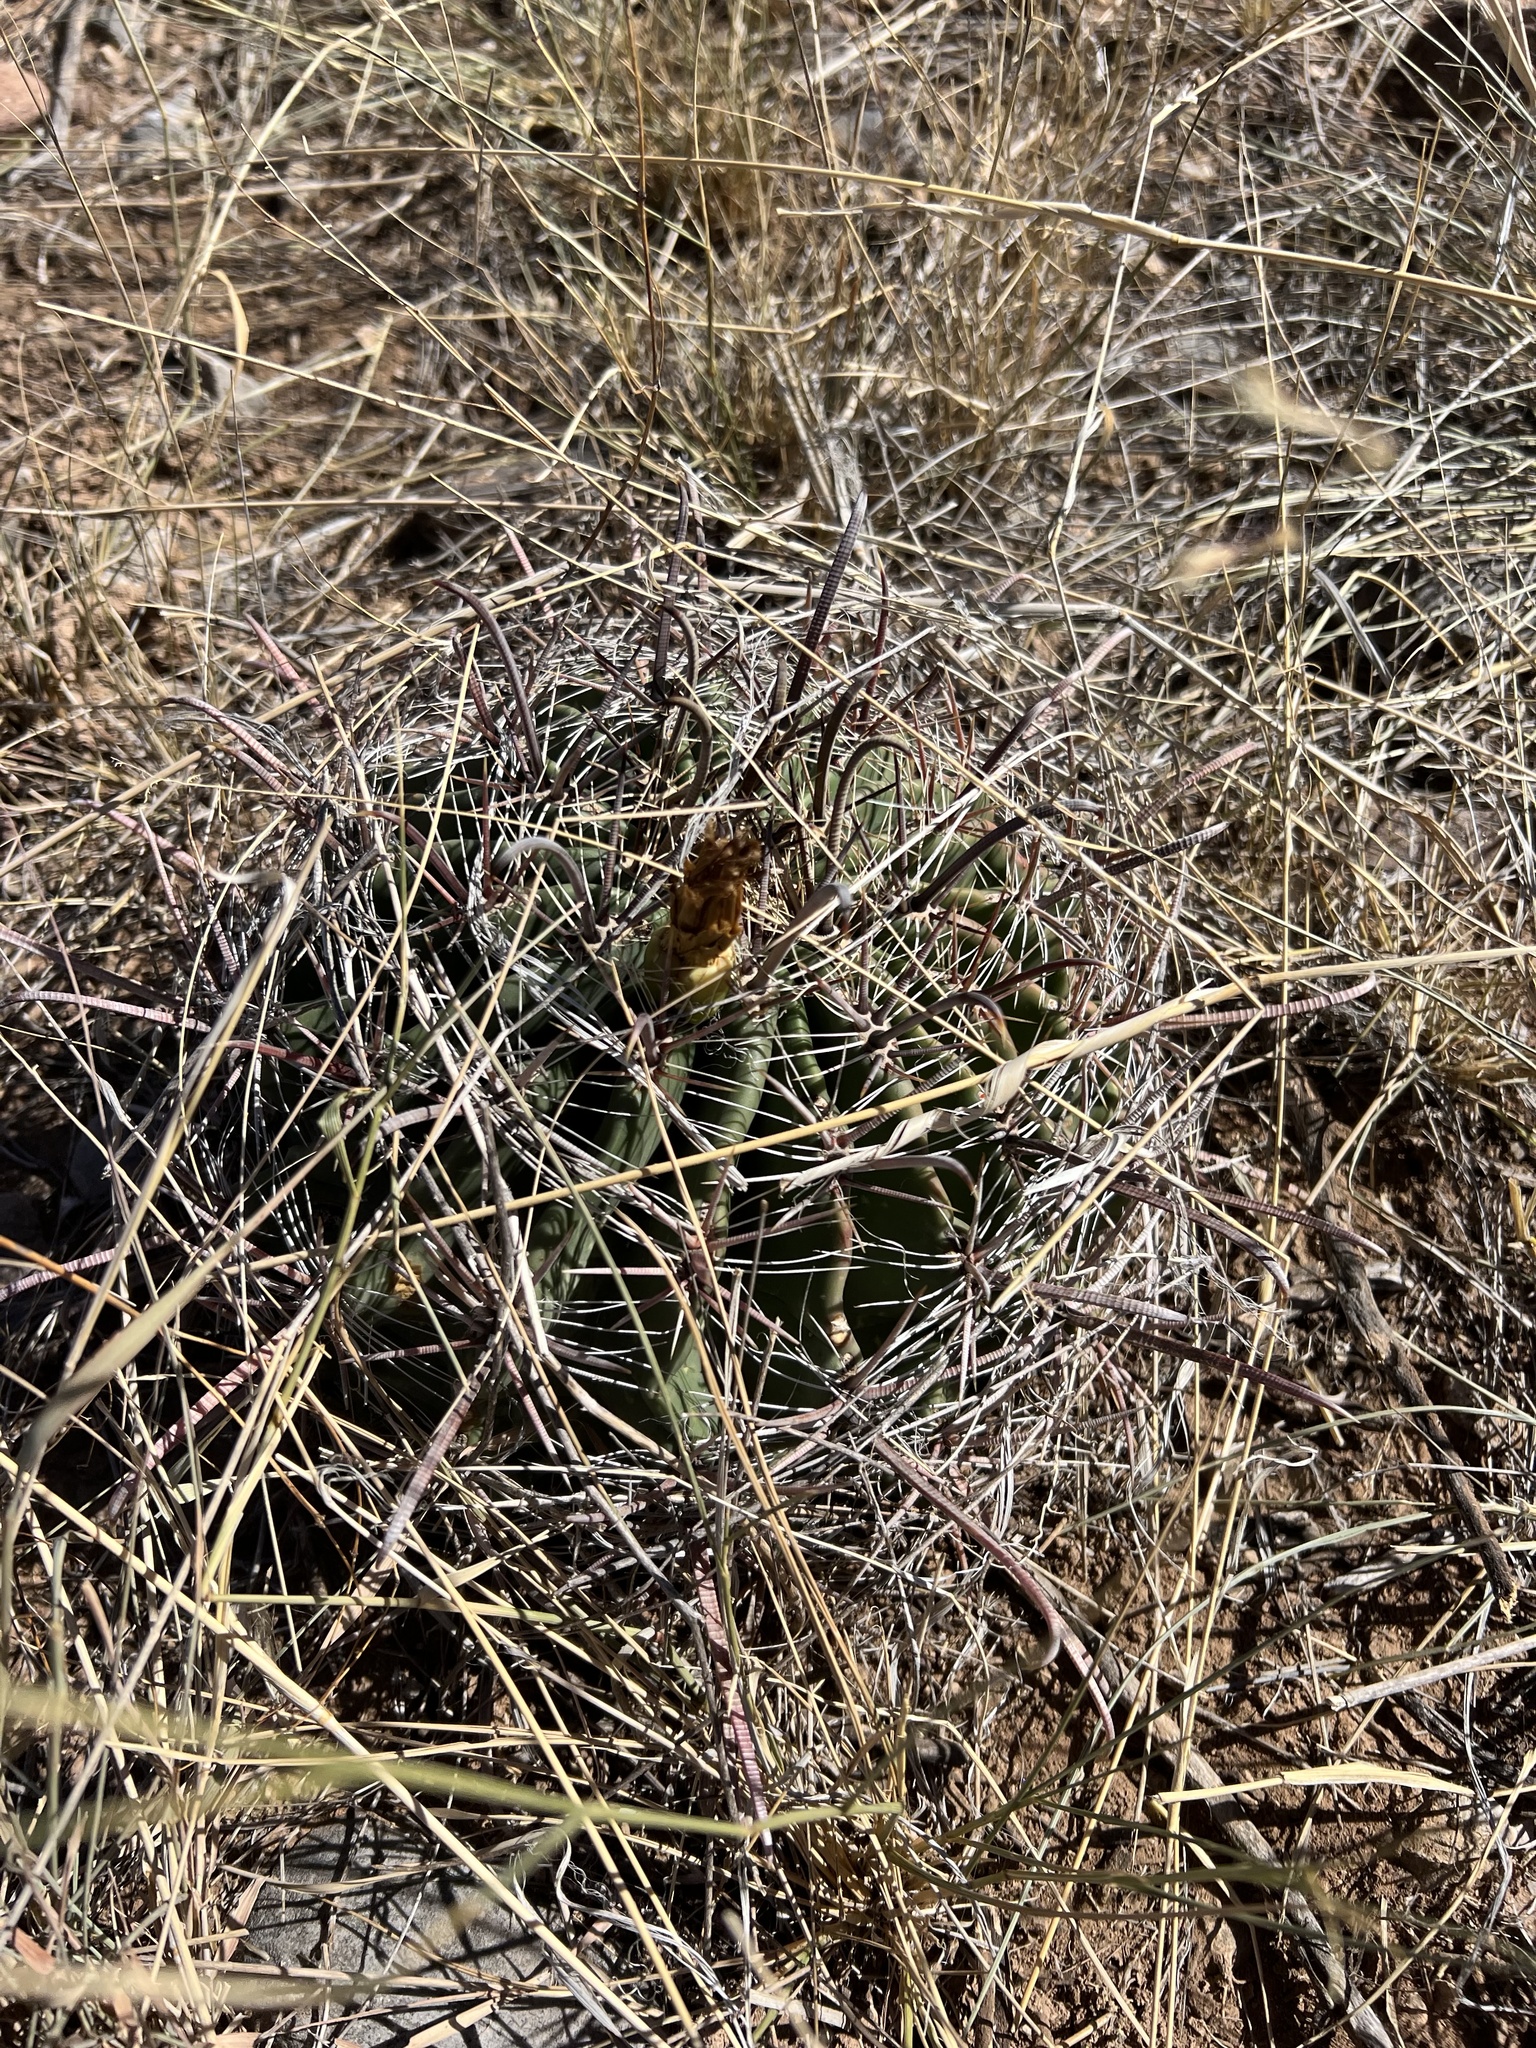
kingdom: Plantae
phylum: Tracheophyta
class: Magnoliopsida
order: Caryophyllales
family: Cactaceae
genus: Ferocactus
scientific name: Ferocactus wislizeni
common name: Candy barrel cactus
